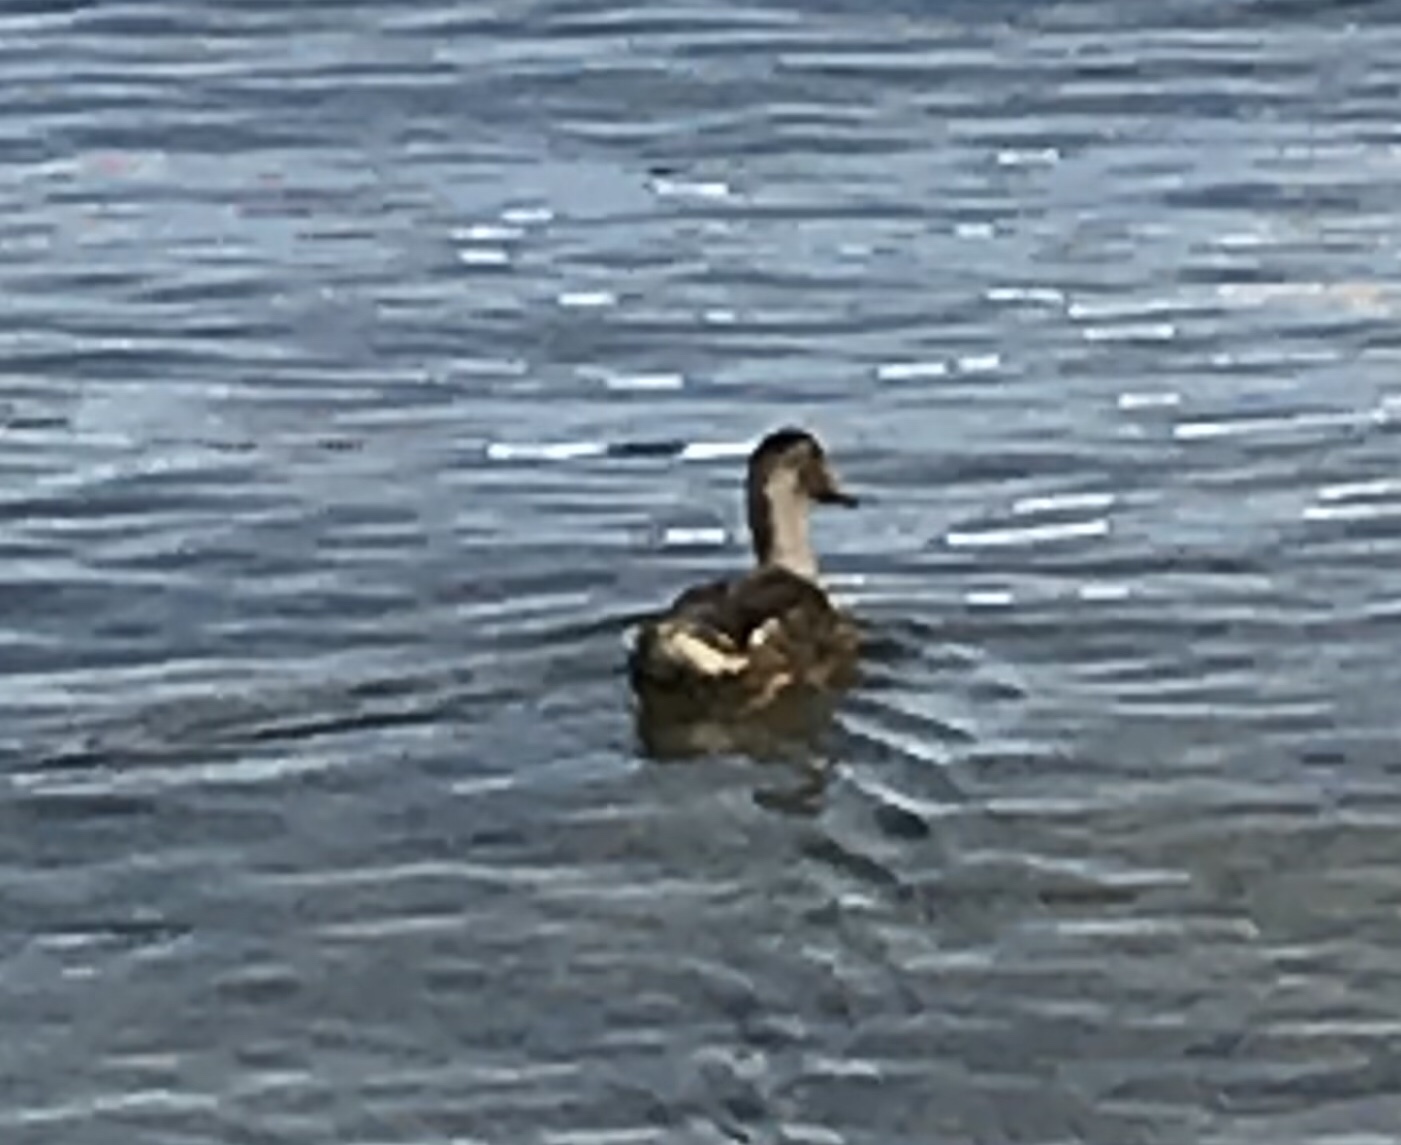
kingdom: Animalia
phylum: Chordata
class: Aves
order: Anseriformes
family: Anatidae
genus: Anas
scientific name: Anas platyrhynchos
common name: Mallard
